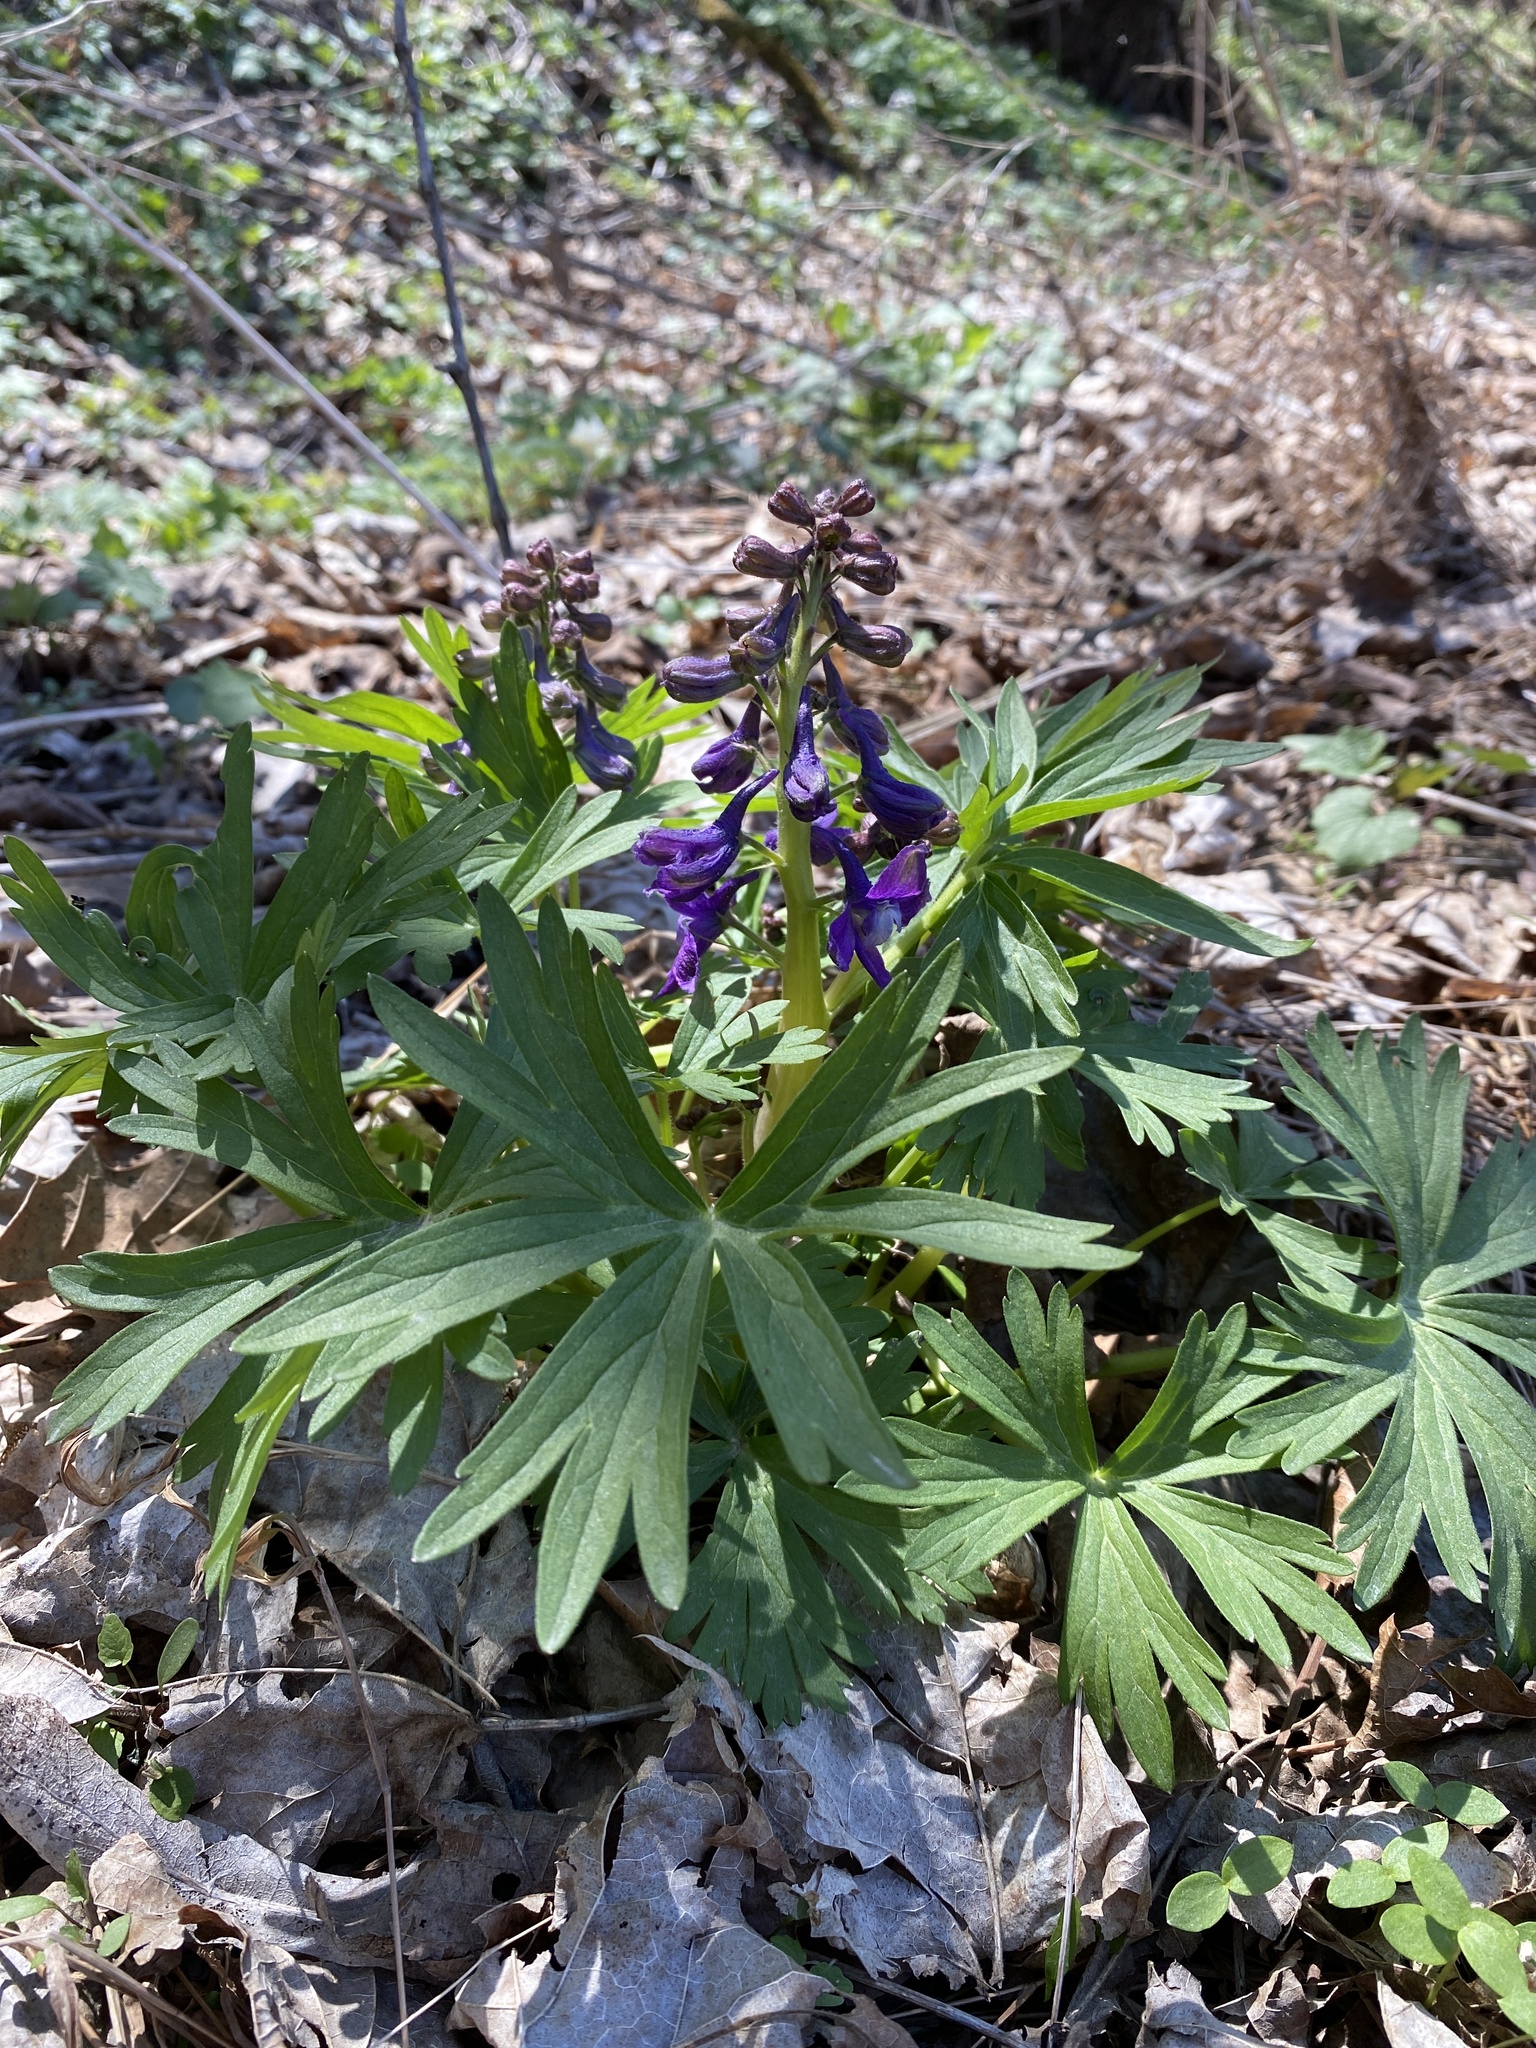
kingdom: Plantae
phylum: Tracheophyta
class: Magnoliopsida
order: Ranunculales
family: Ranunculaceae
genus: Delphinium
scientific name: Delphinium tricorne
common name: Dwarf larkspur
